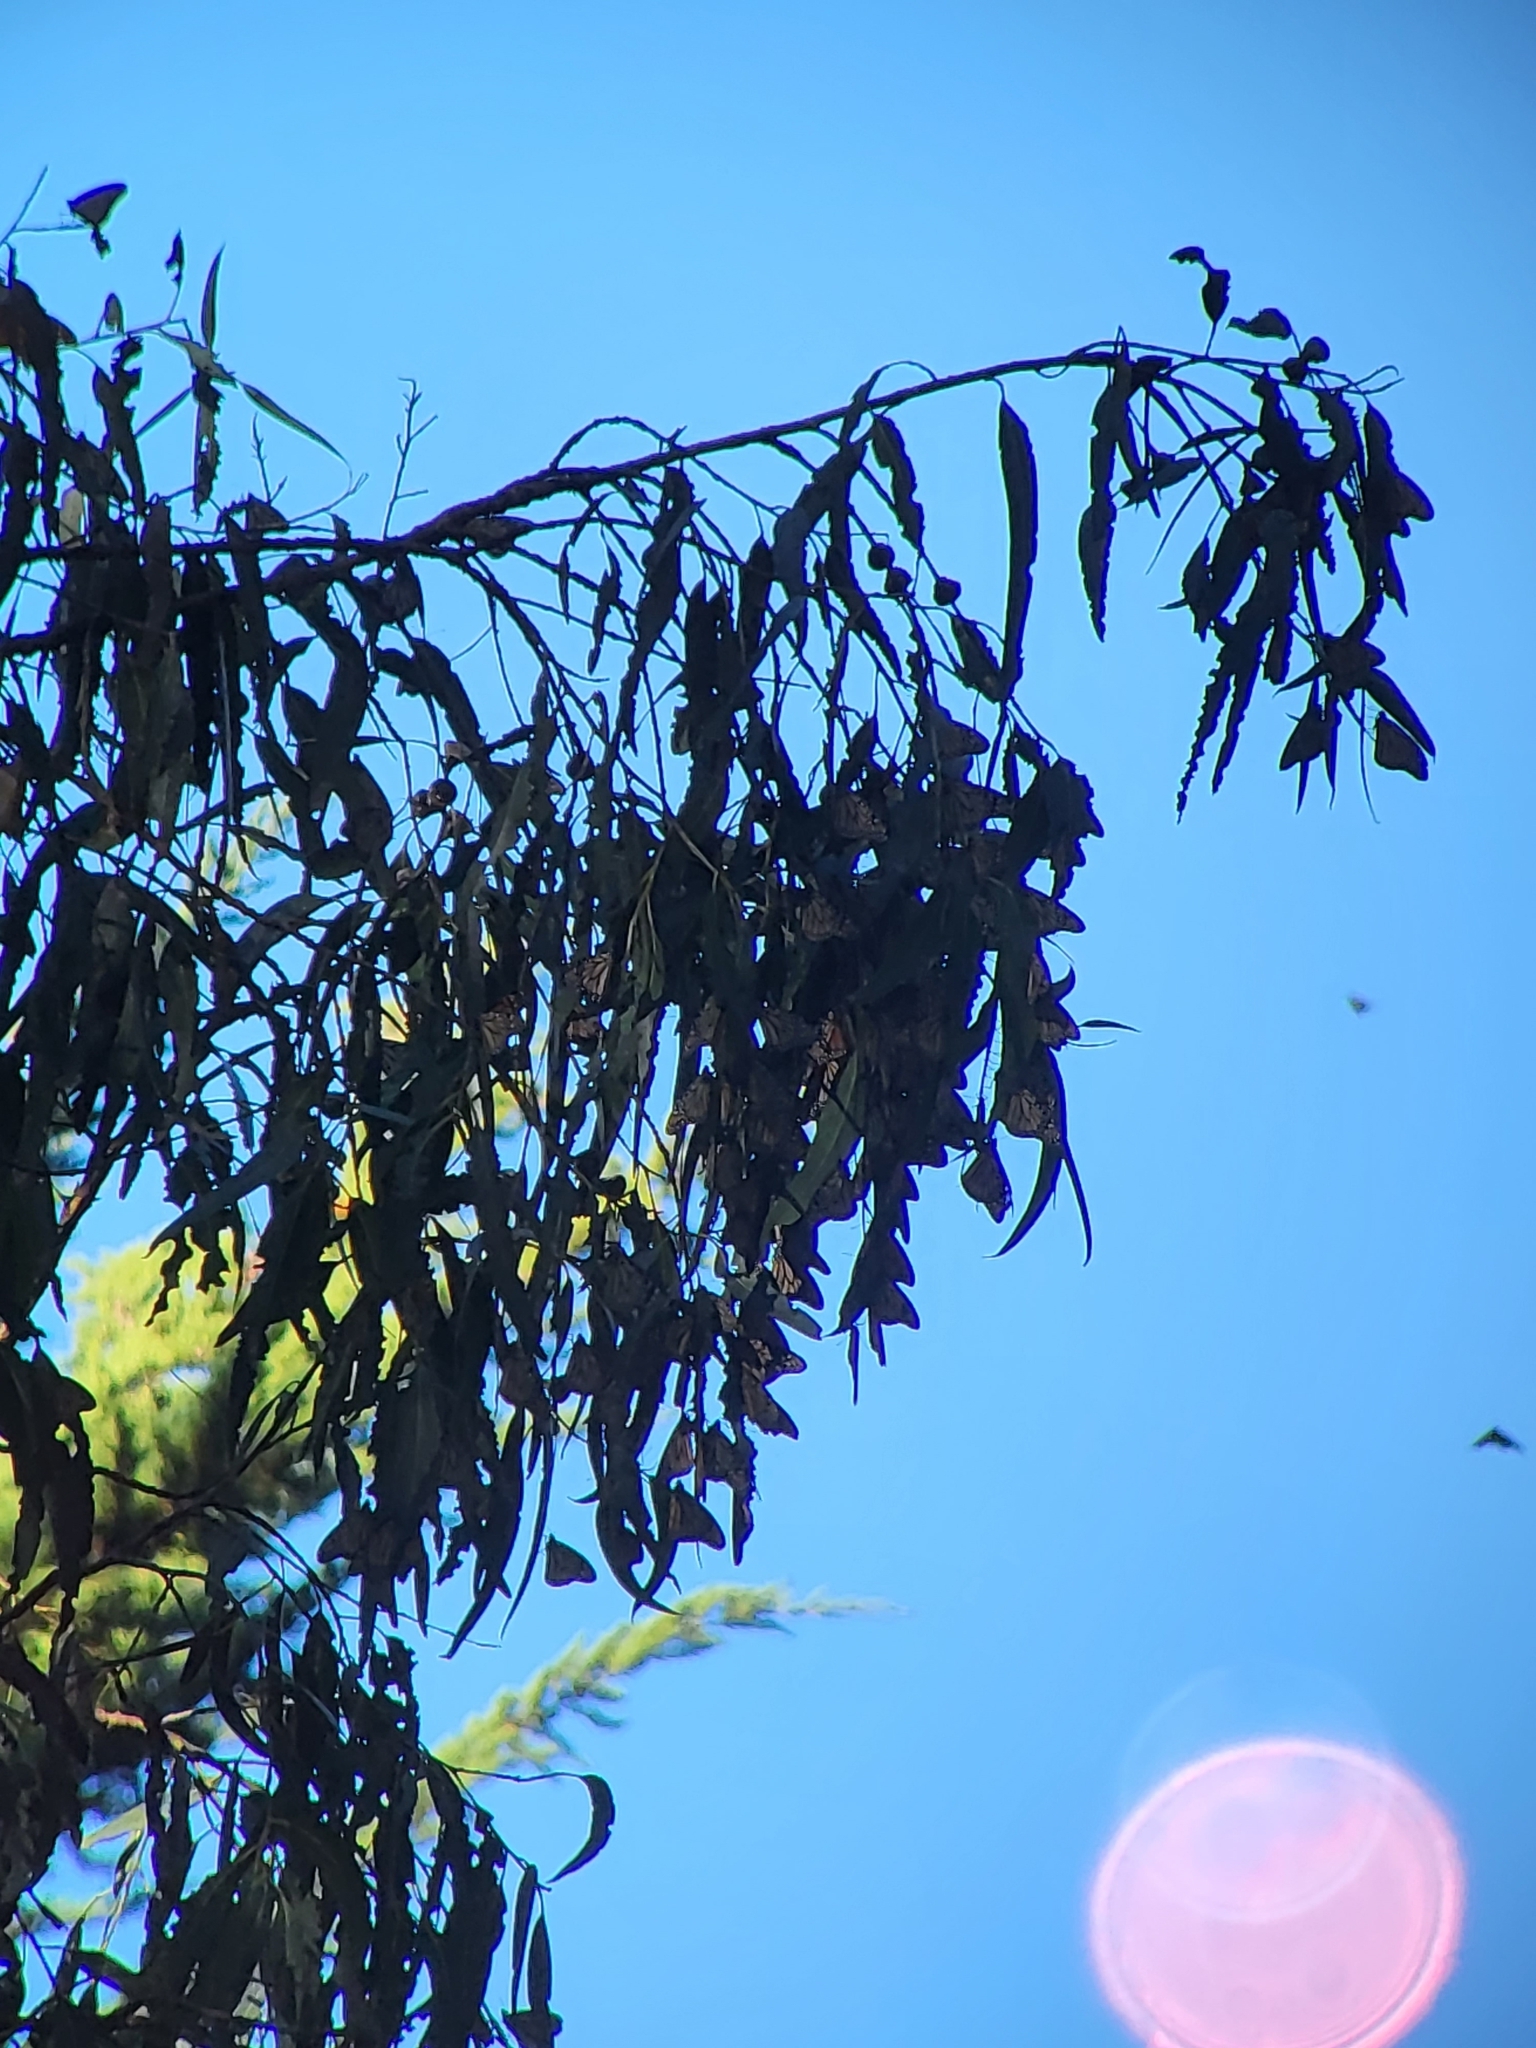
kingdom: Animalia
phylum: Arthropoda
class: Insecta
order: Lepidoptera
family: Nymphalidae
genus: Danaus
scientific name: Danaus plexippus
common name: Monarch
